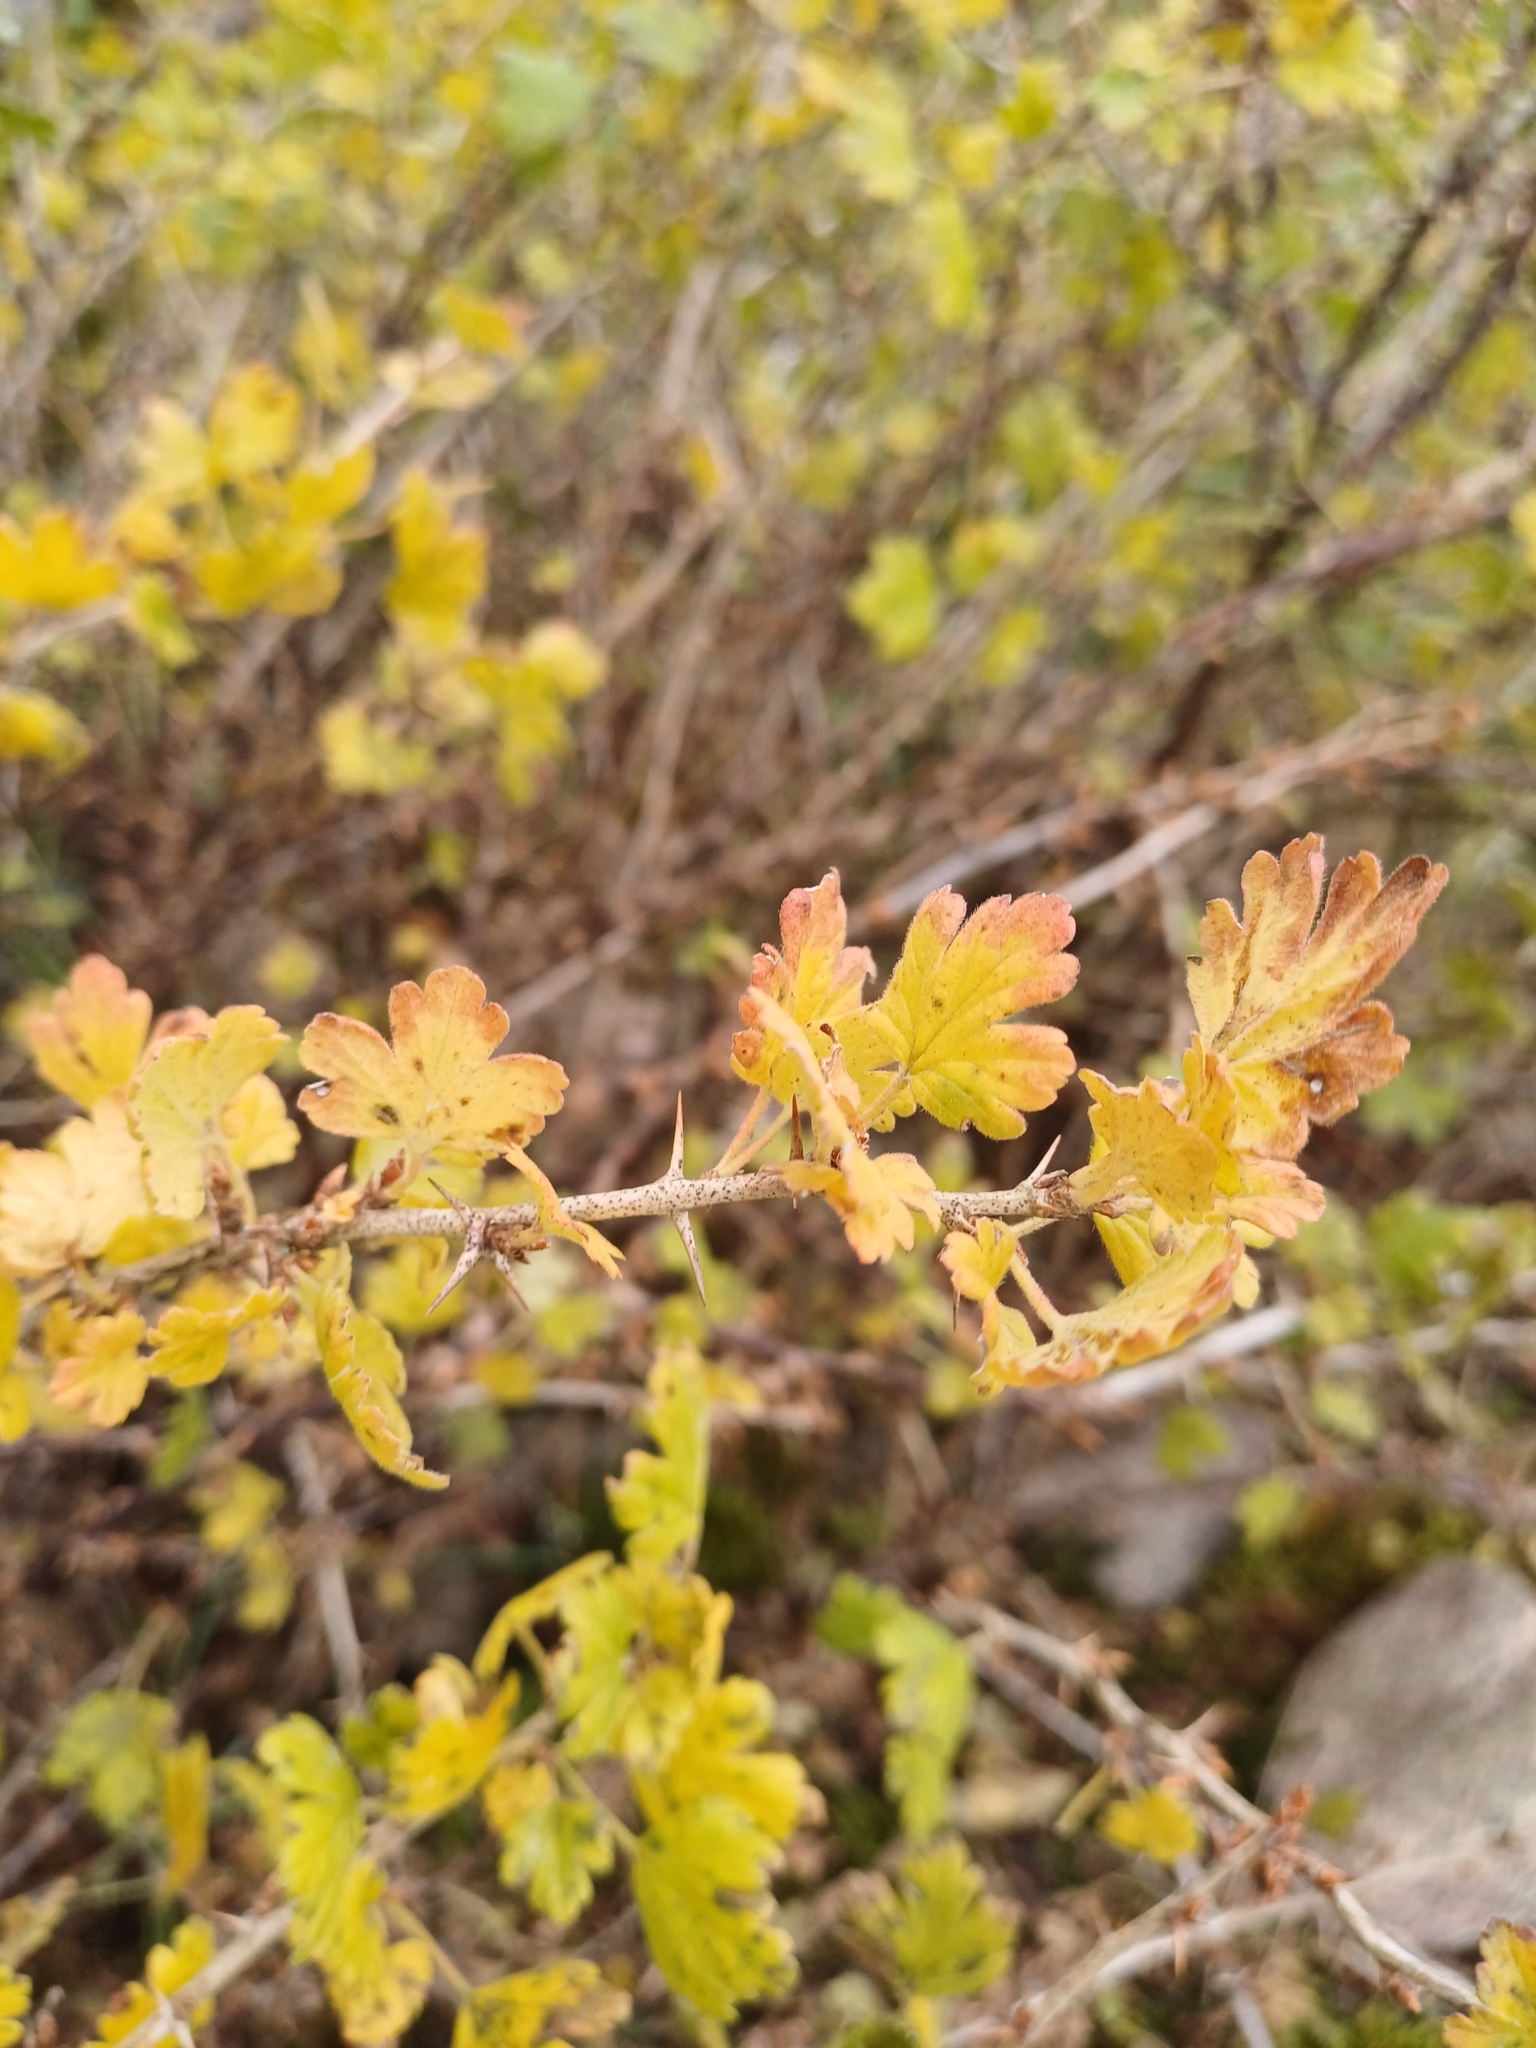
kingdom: Plantae
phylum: Tracheophyta
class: Magnoliopsida
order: Saxifragales
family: Grossulariaceae
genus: Ribes
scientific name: Ribes uva-crispa
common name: Gooseberry
